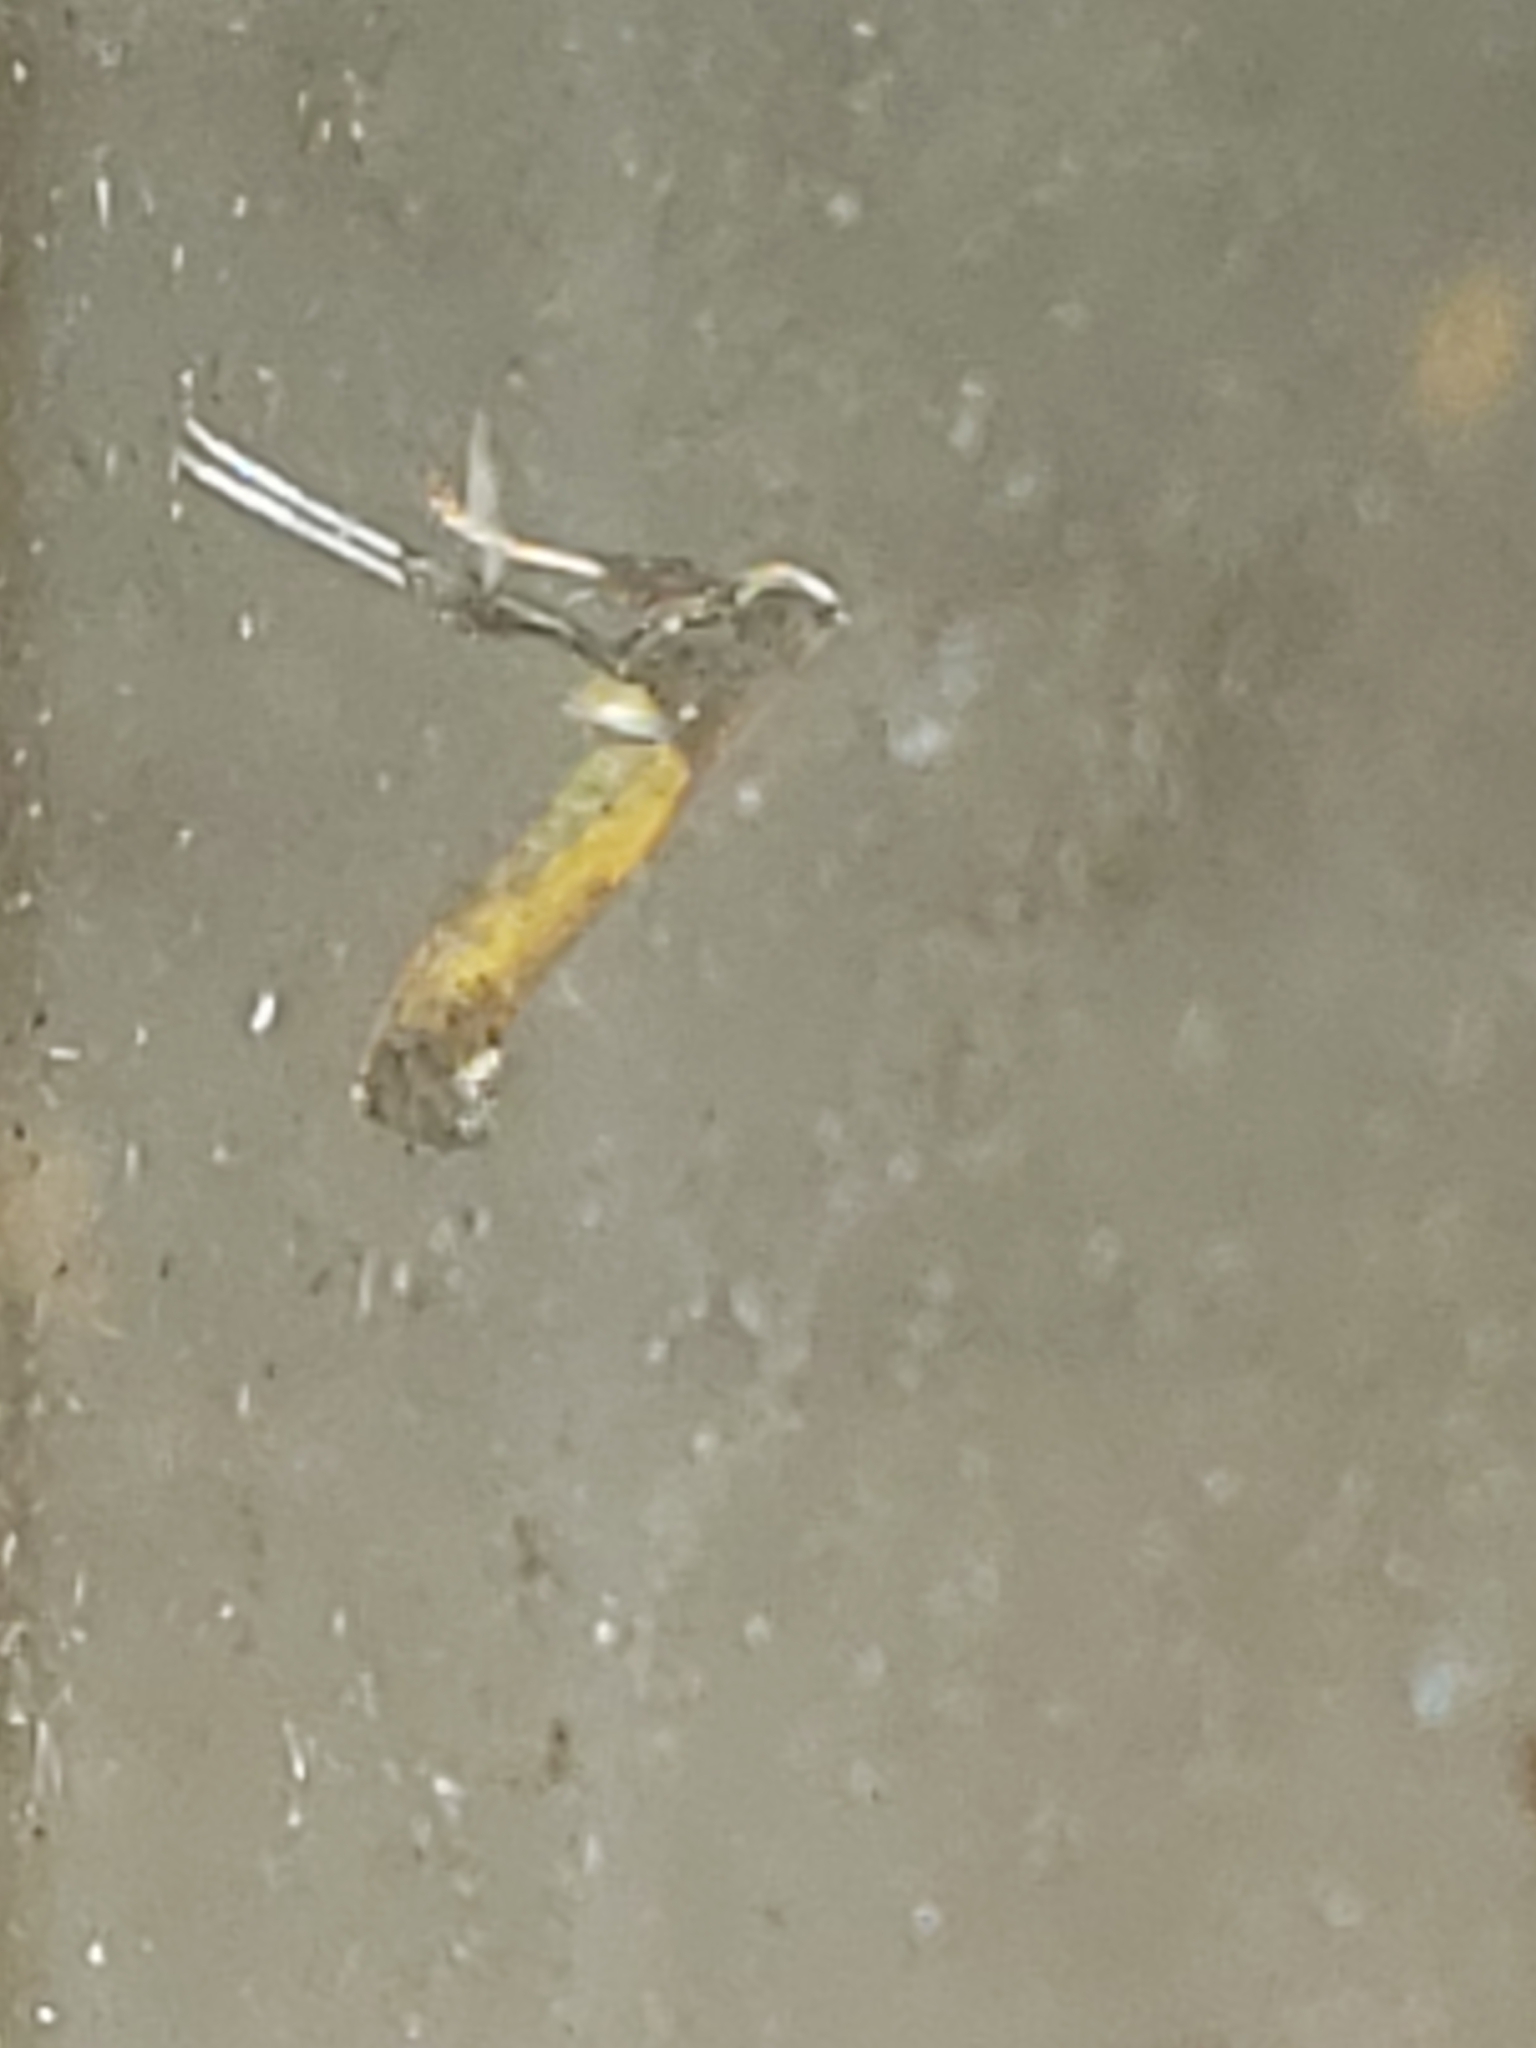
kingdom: Animalia
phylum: Arthropoda
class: Insecta
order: Lepidoptera
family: Gracillariidae
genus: Caloptilia
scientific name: Caloptilia azaleella
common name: Azalea leafminer
